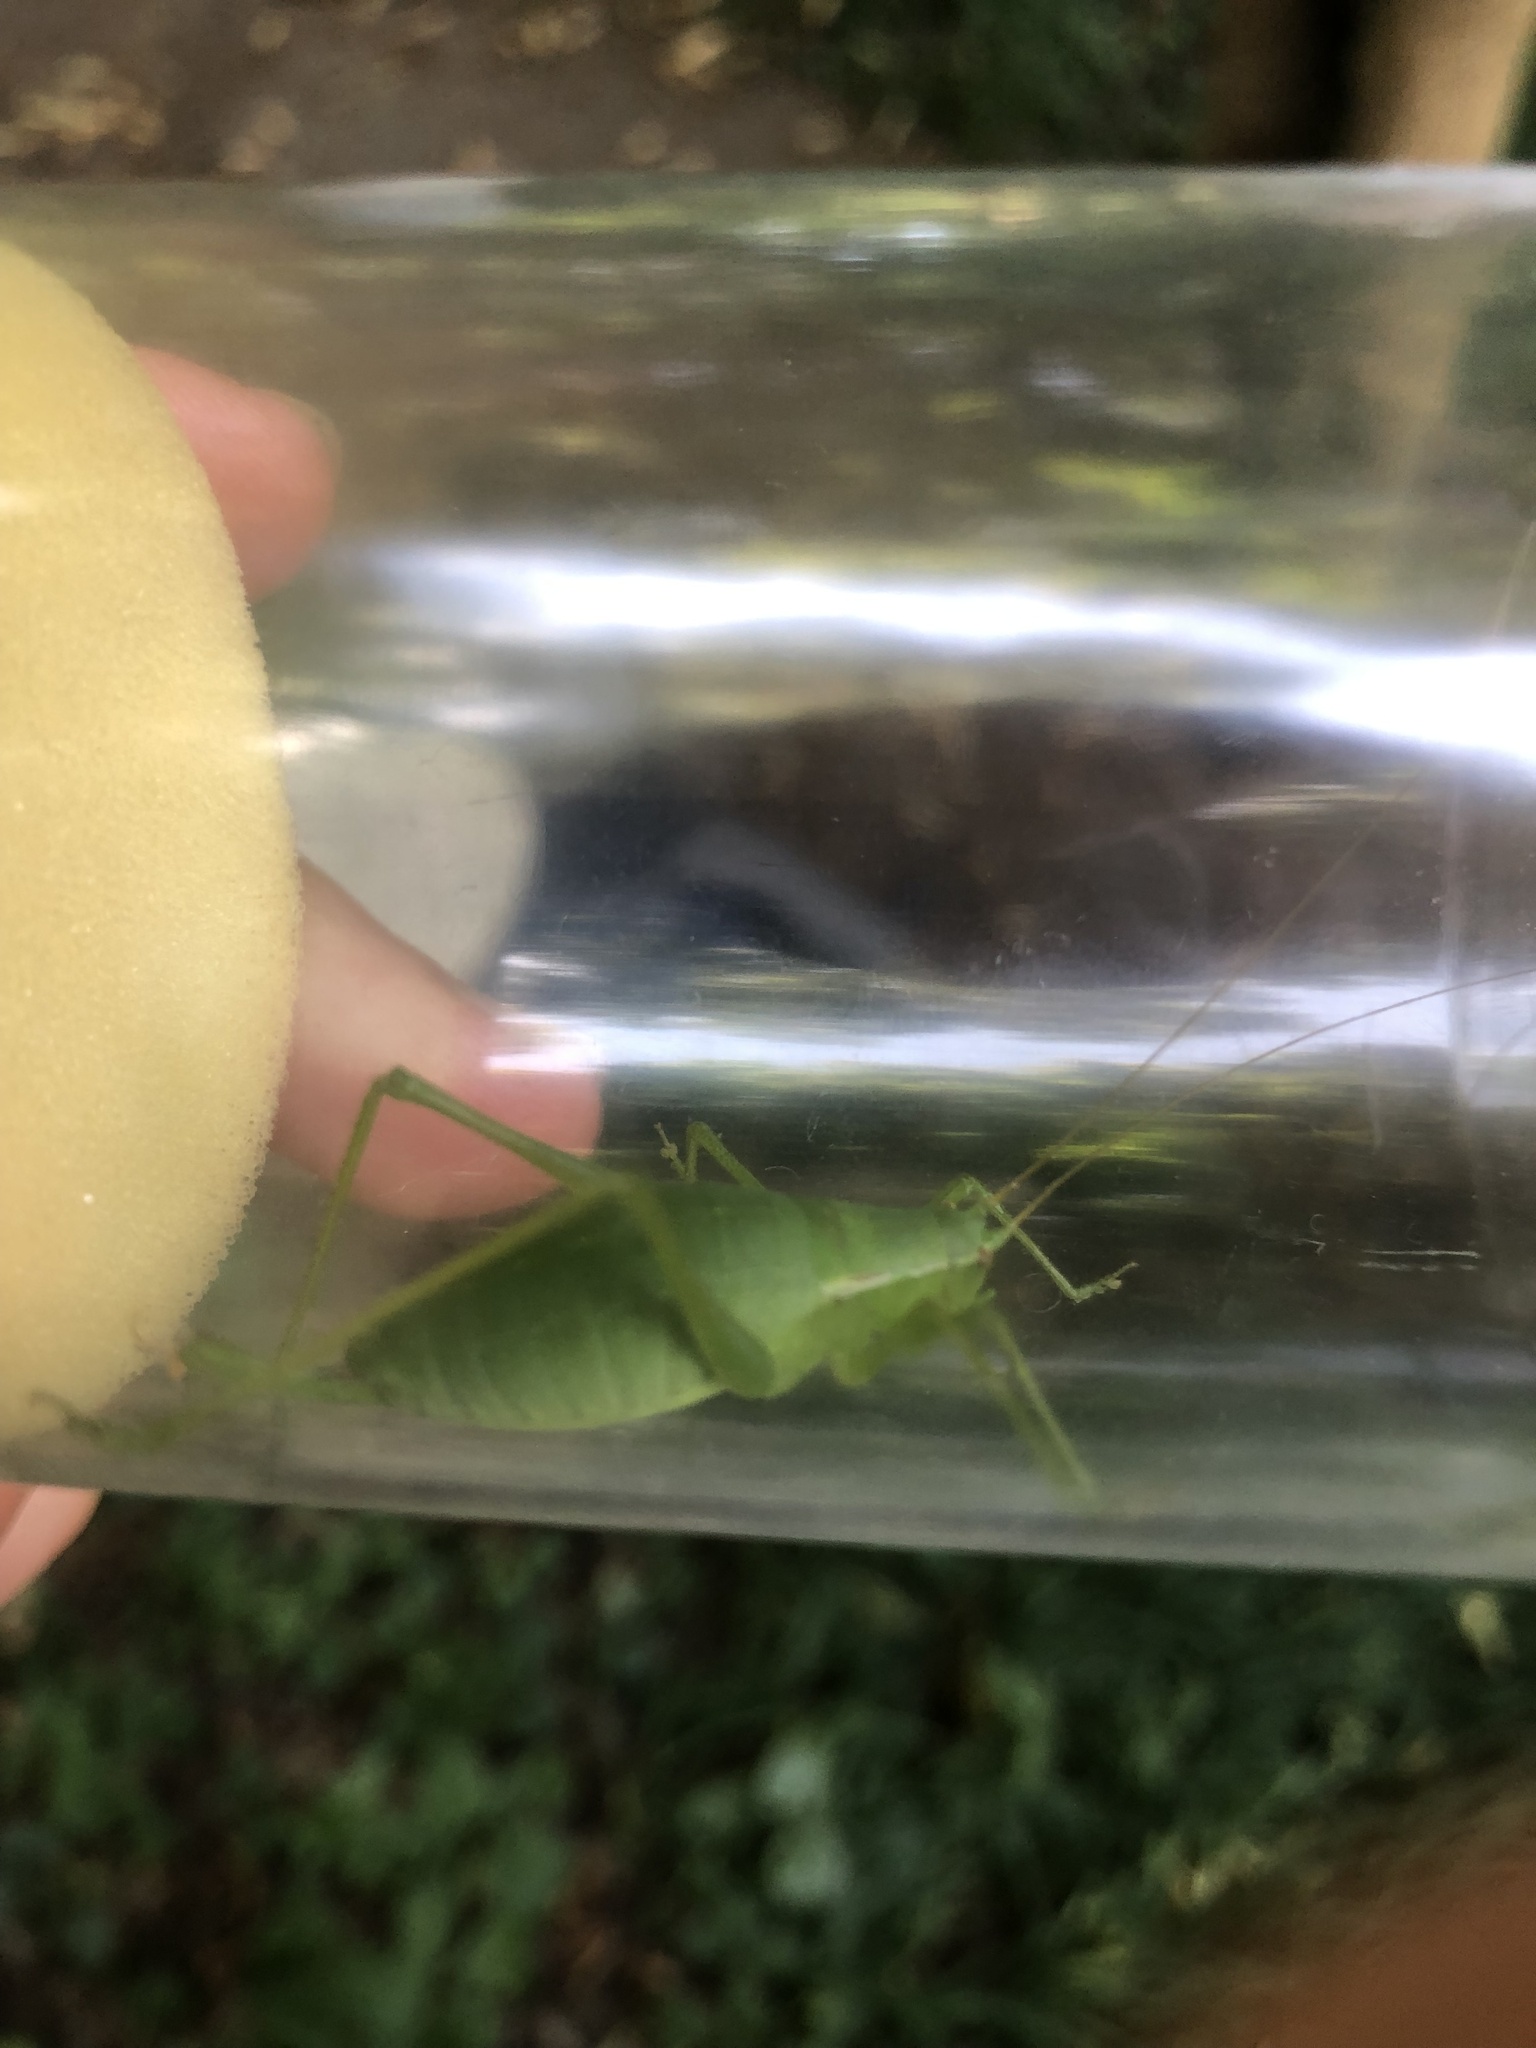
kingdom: Animalia
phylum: Arthropoda
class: Insecta
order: Orthoptera
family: Tettigoniidae
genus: Isophya
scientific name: Isophya pienensis
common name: Pieninsky' plump bush-cricket
